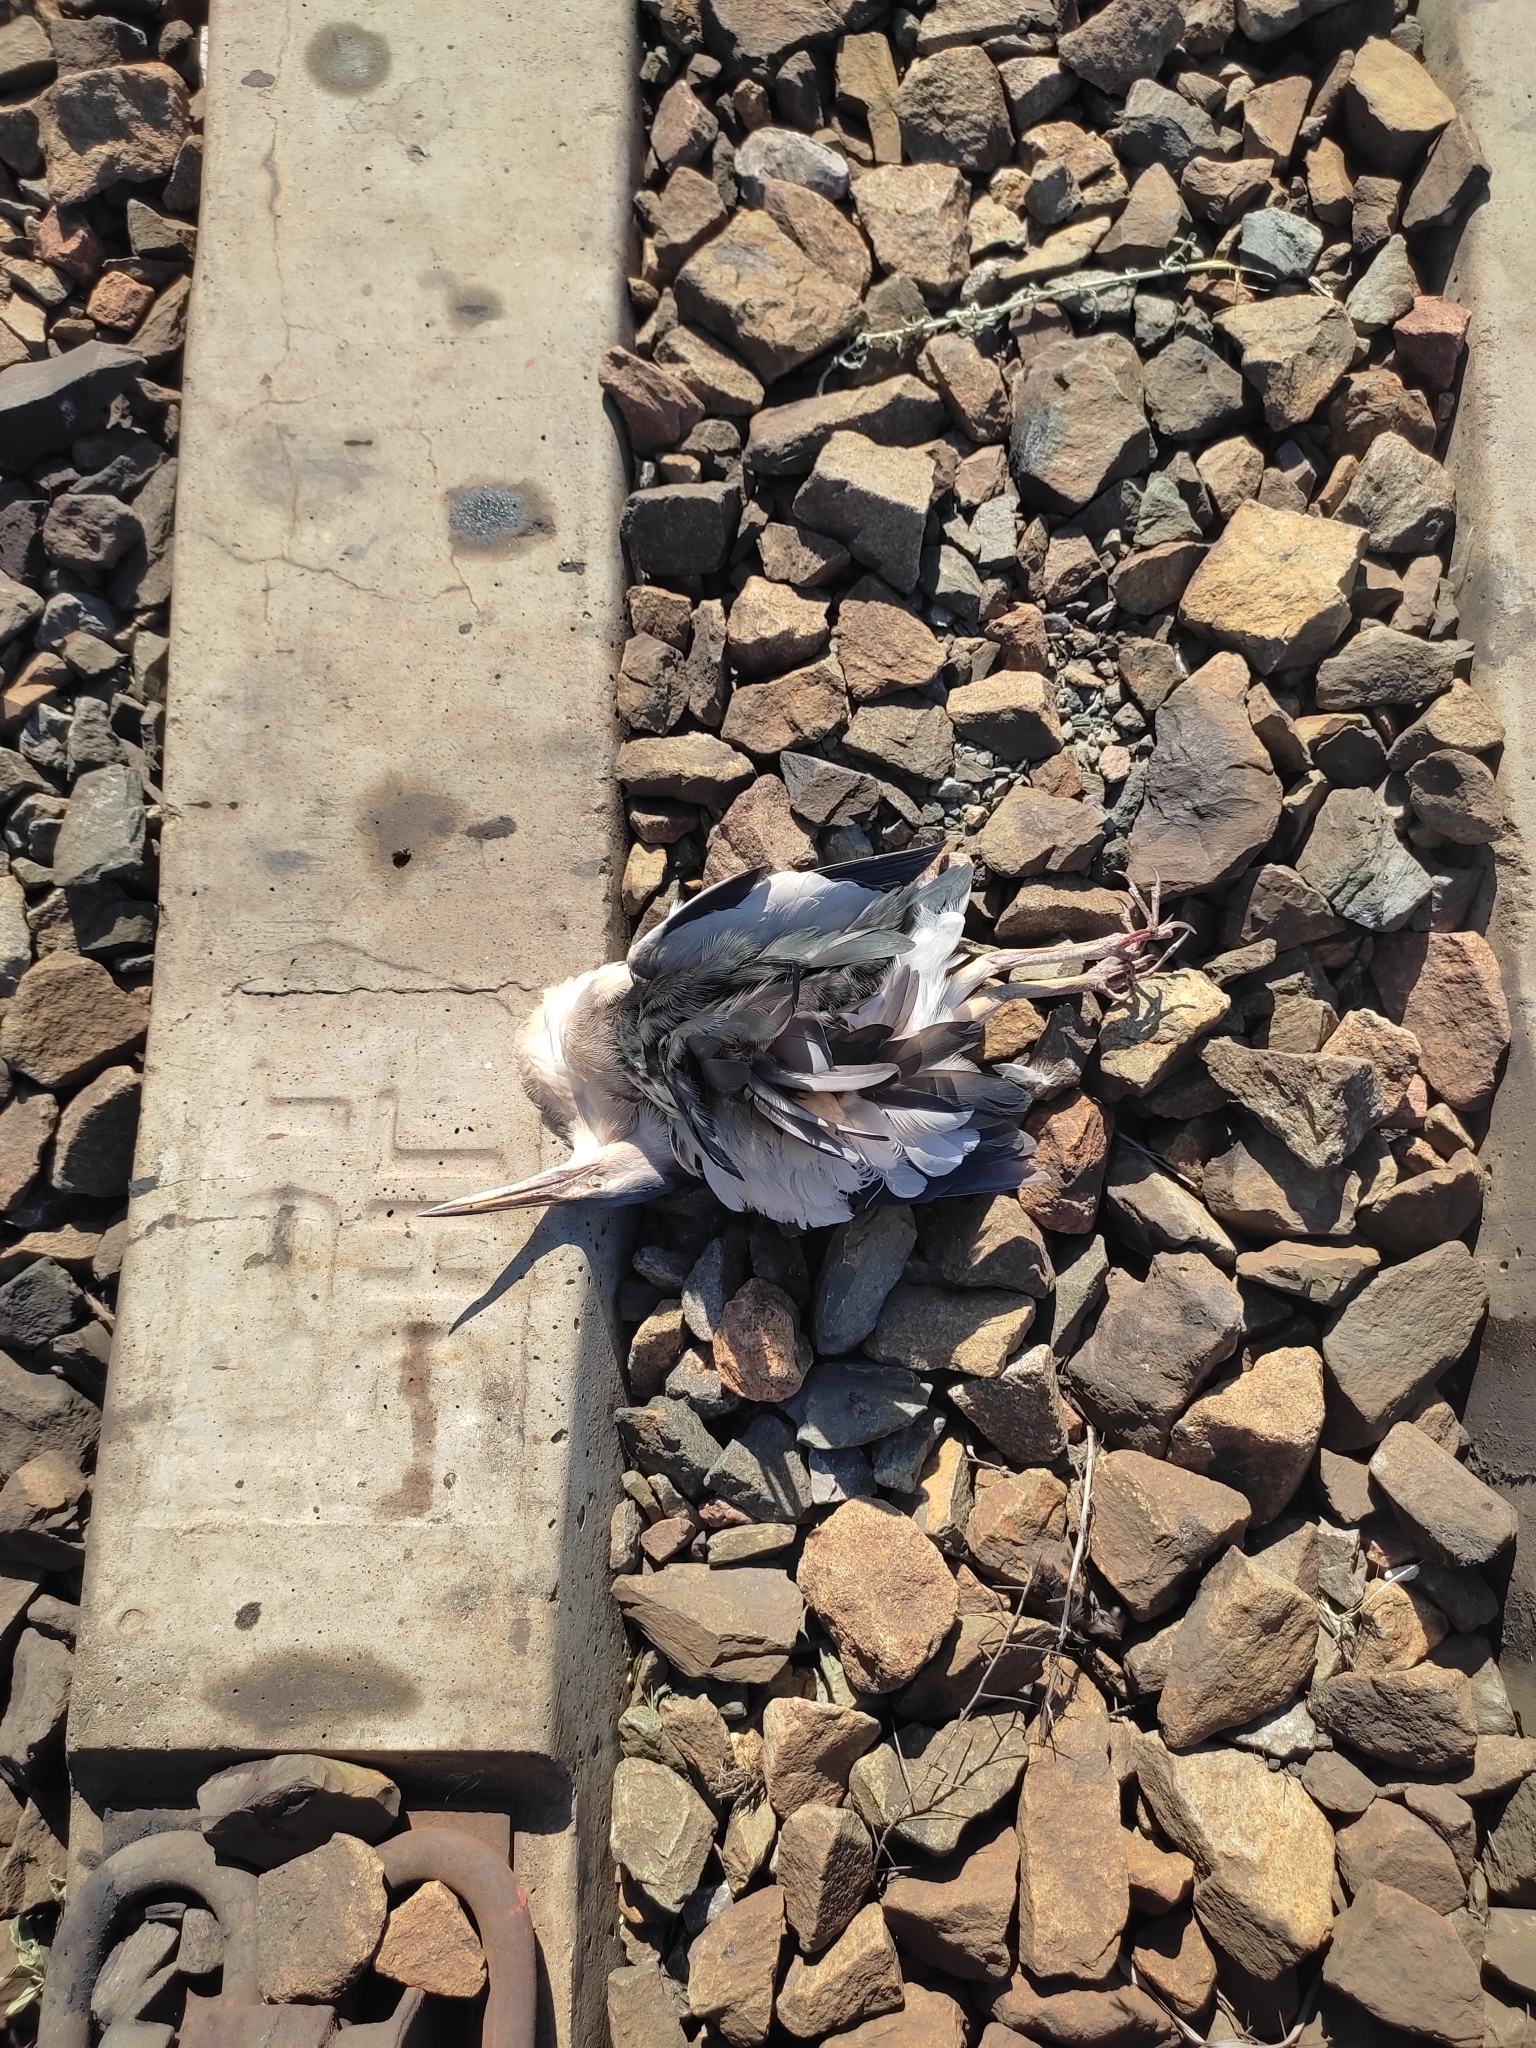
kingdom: Animalia
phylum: Chordata
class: Aves
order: Pelecaniformes
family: Ardeidae
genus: Ixobrychus
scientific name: Ixobrychus minutus
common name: Little bittern
